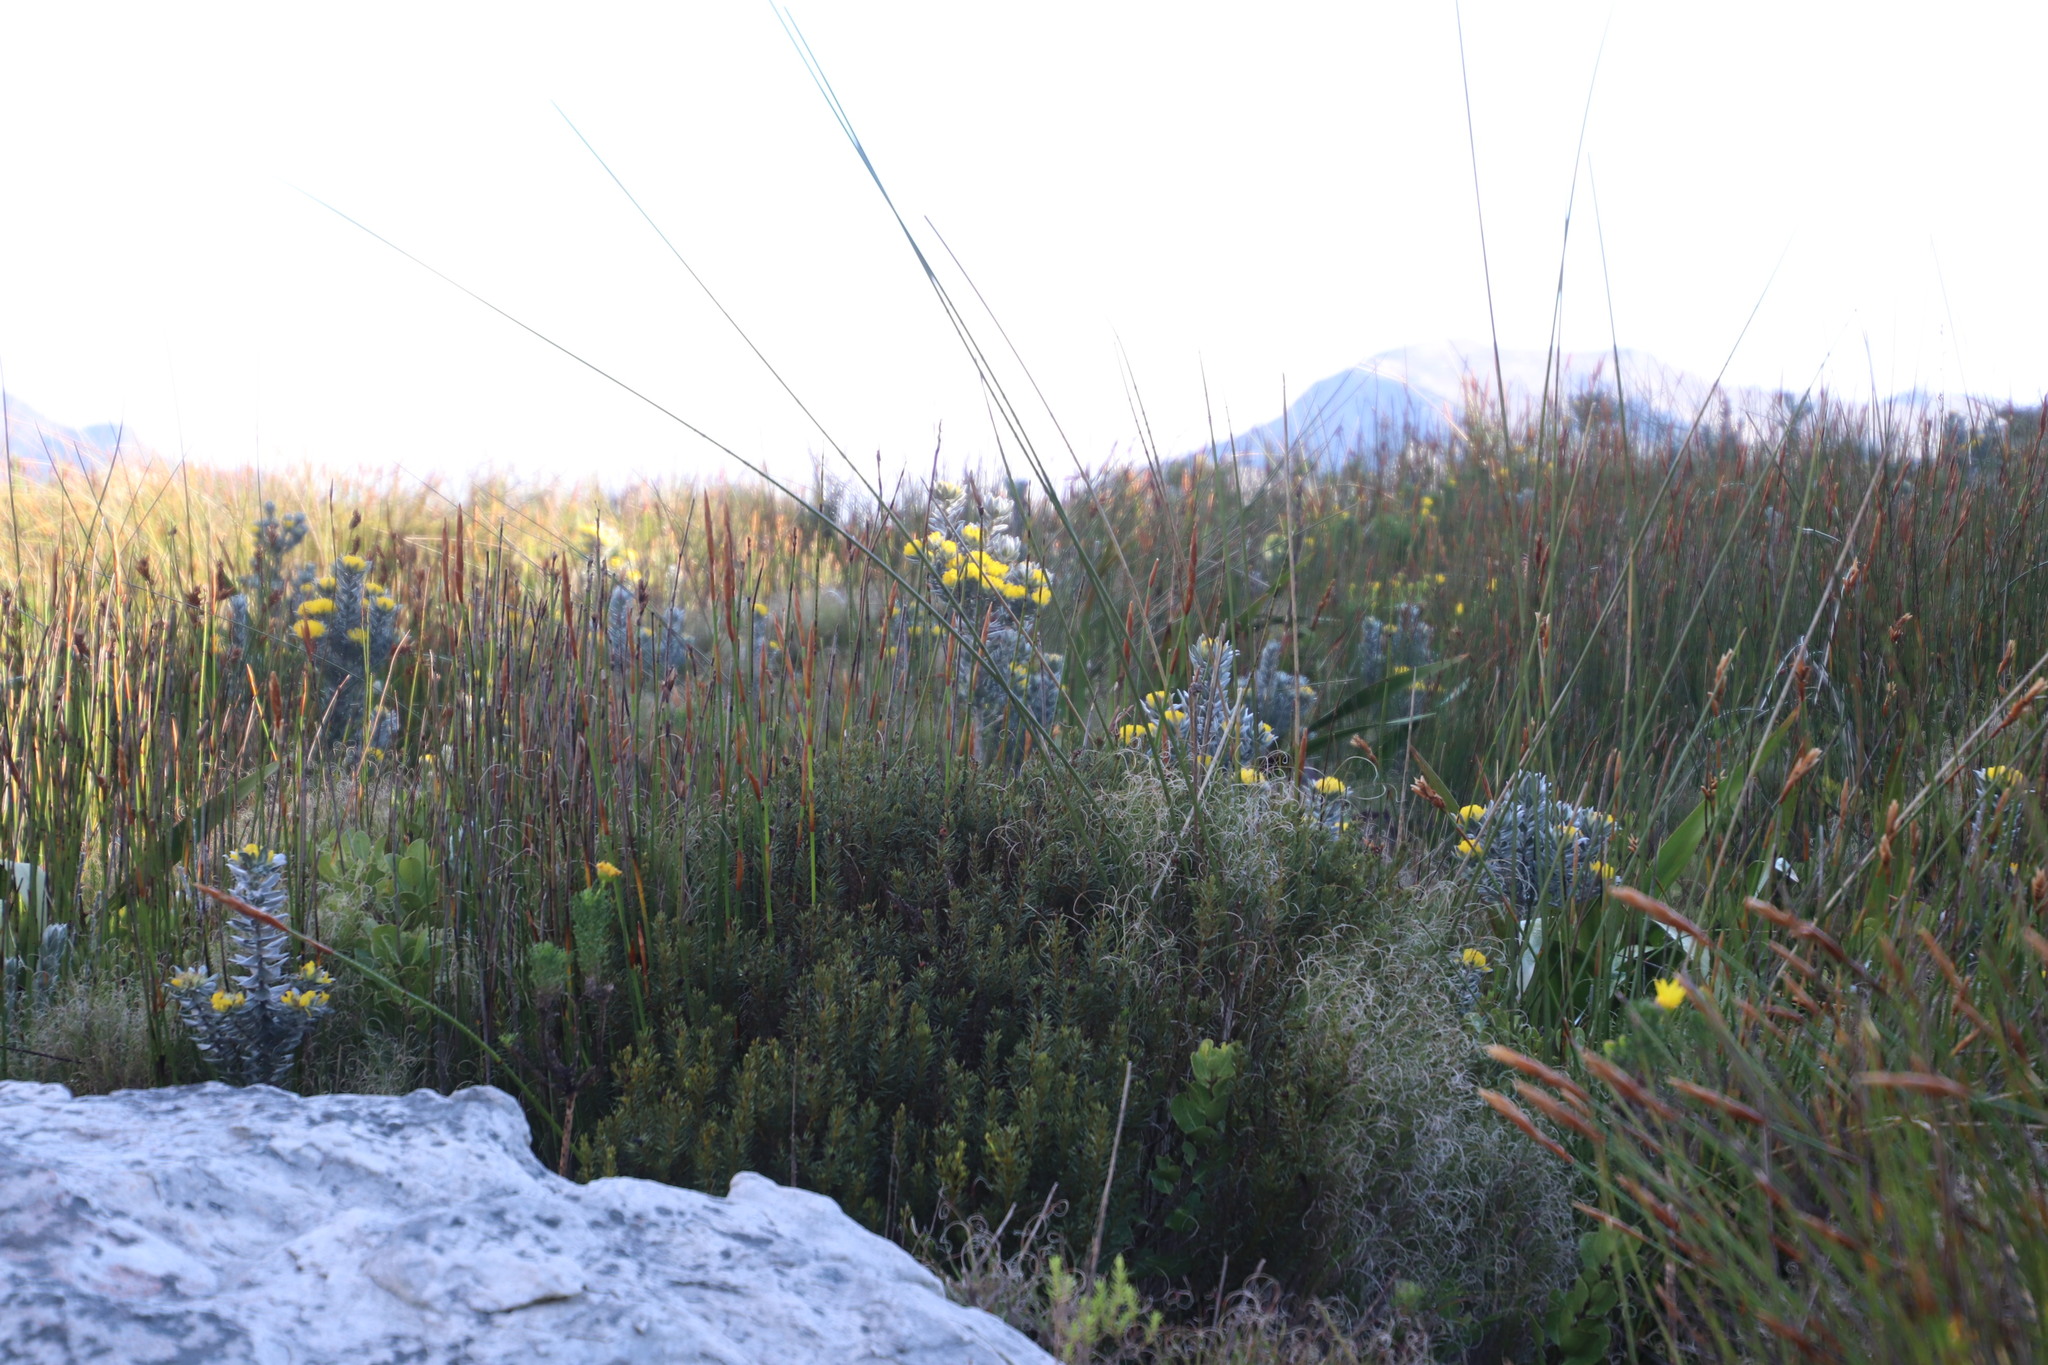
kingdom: Plantae
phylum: Tracheophyta
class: Magnoliopsida
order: Fabales
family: Fabaceae
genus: Xiphotheca
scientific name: Xiphotheca fruticosa
